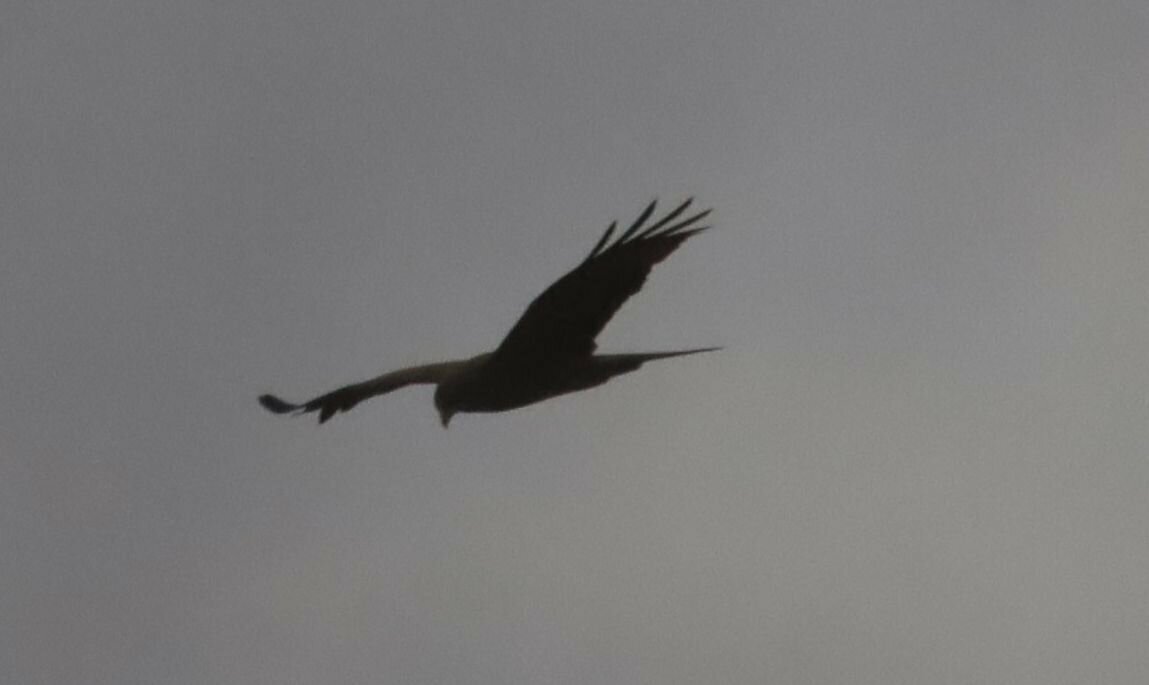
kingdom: Animalia
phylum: Chordata
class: Aves
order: Accipitriformes
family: Accipitridae
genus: Milvus
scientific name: Milvus migrans
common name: Black kite
